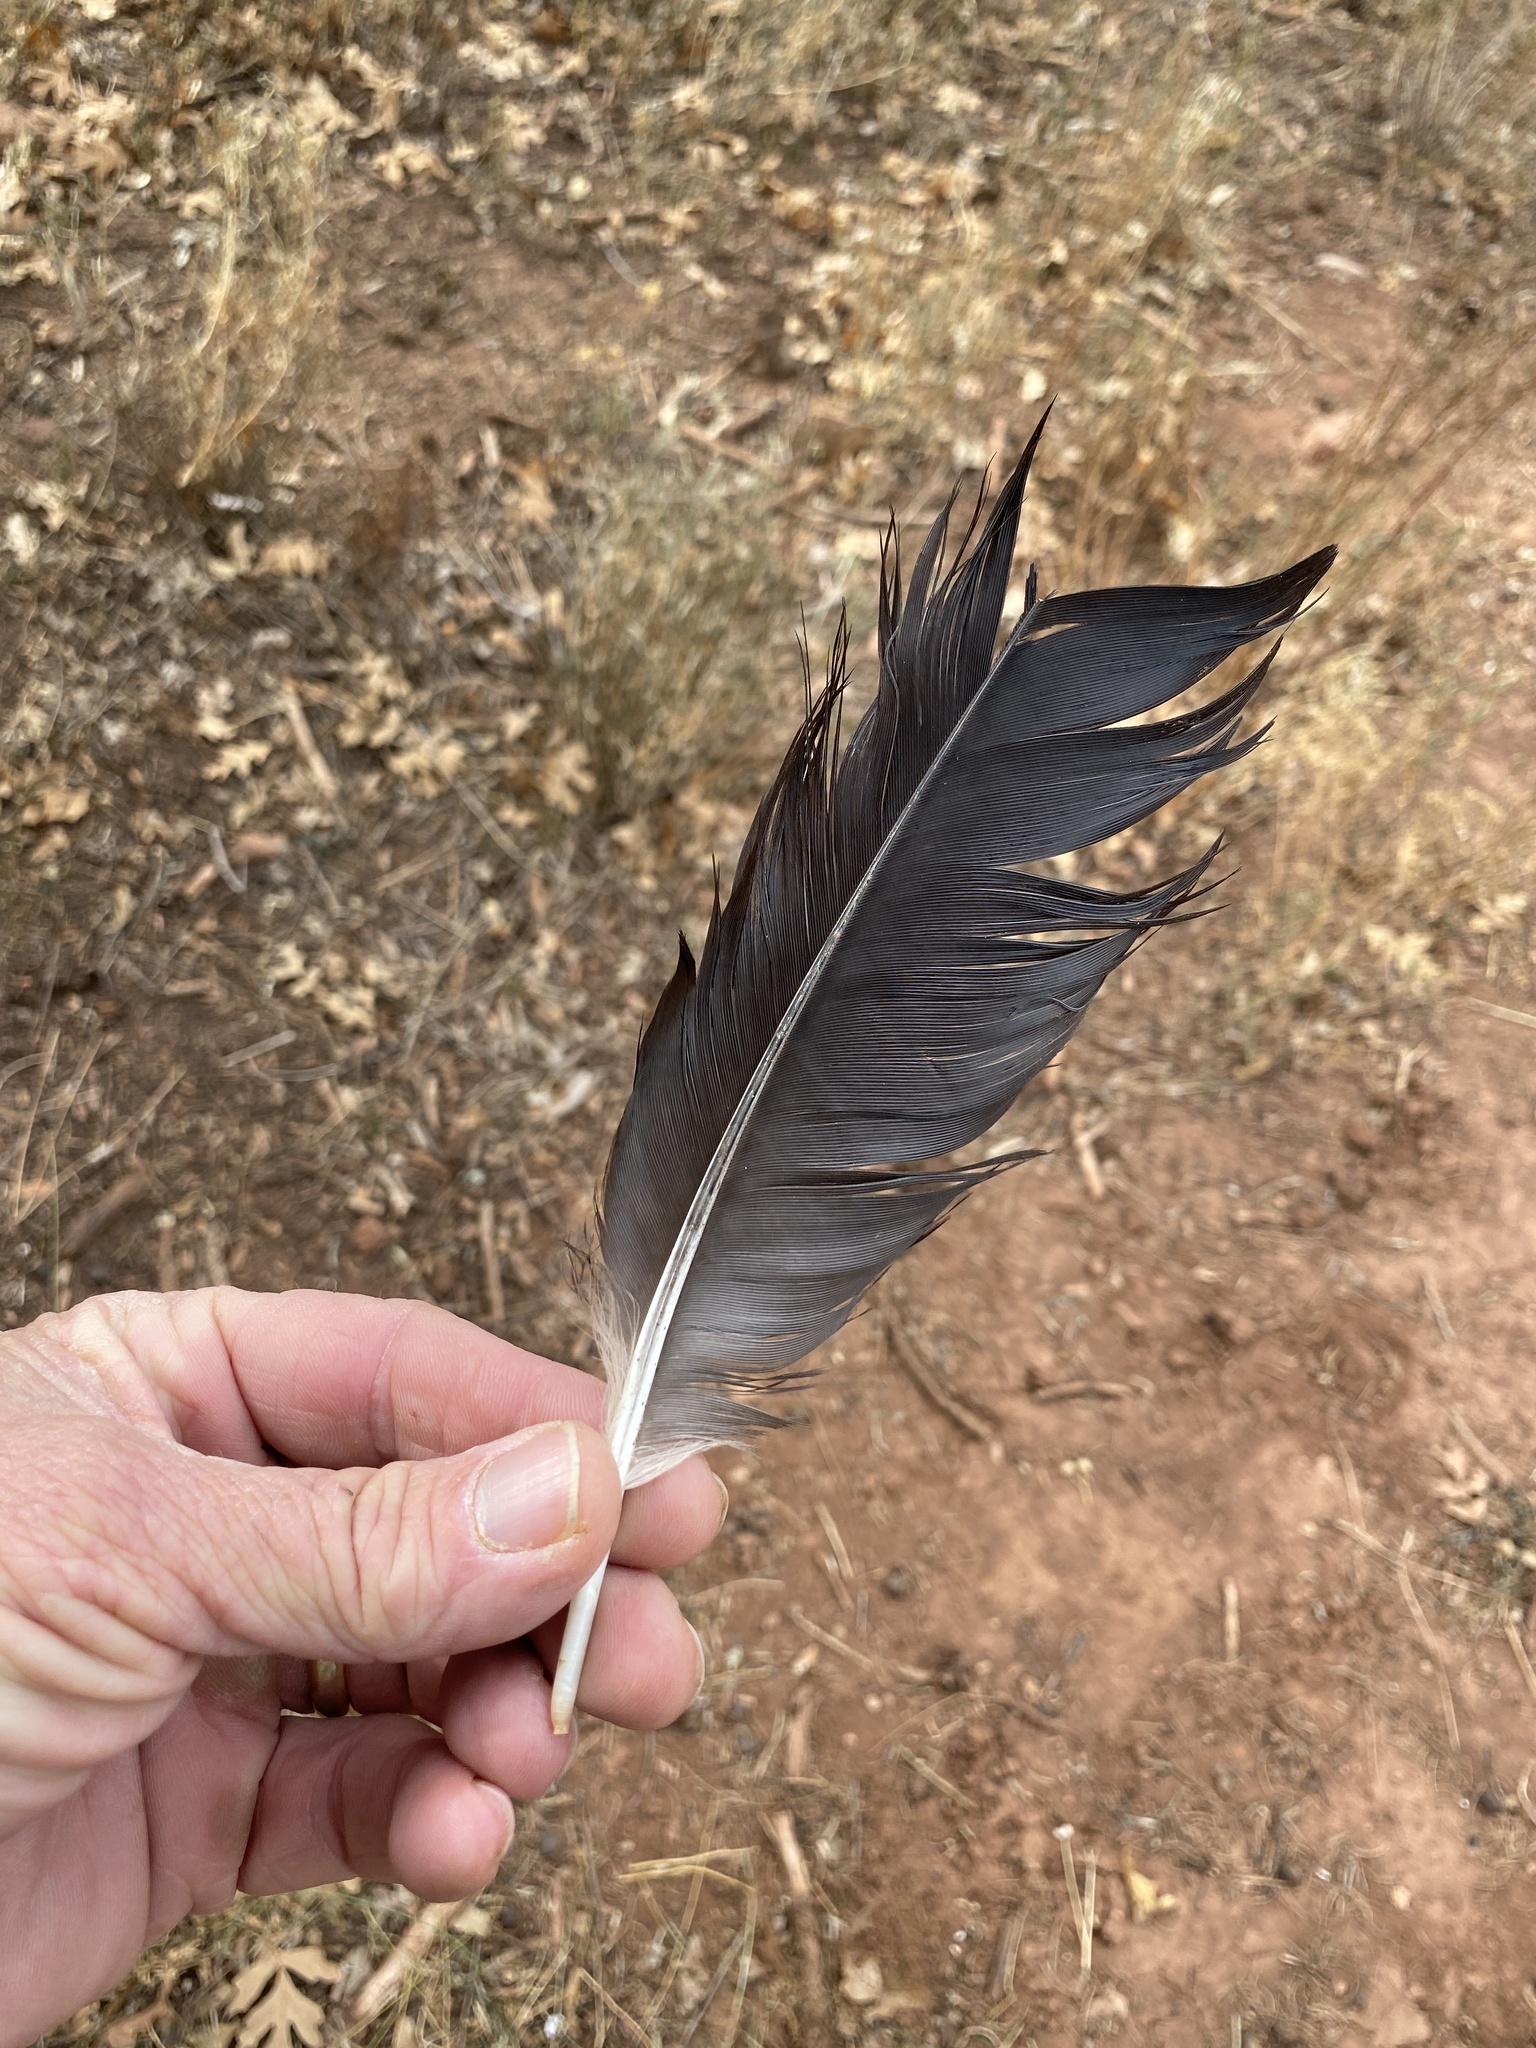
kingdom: Animalia
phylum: Chordata
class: Aves
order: Accipitriformes
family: Cathartidae
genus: Cathartes
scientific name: Cathartes aura
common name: Turkey vulture
